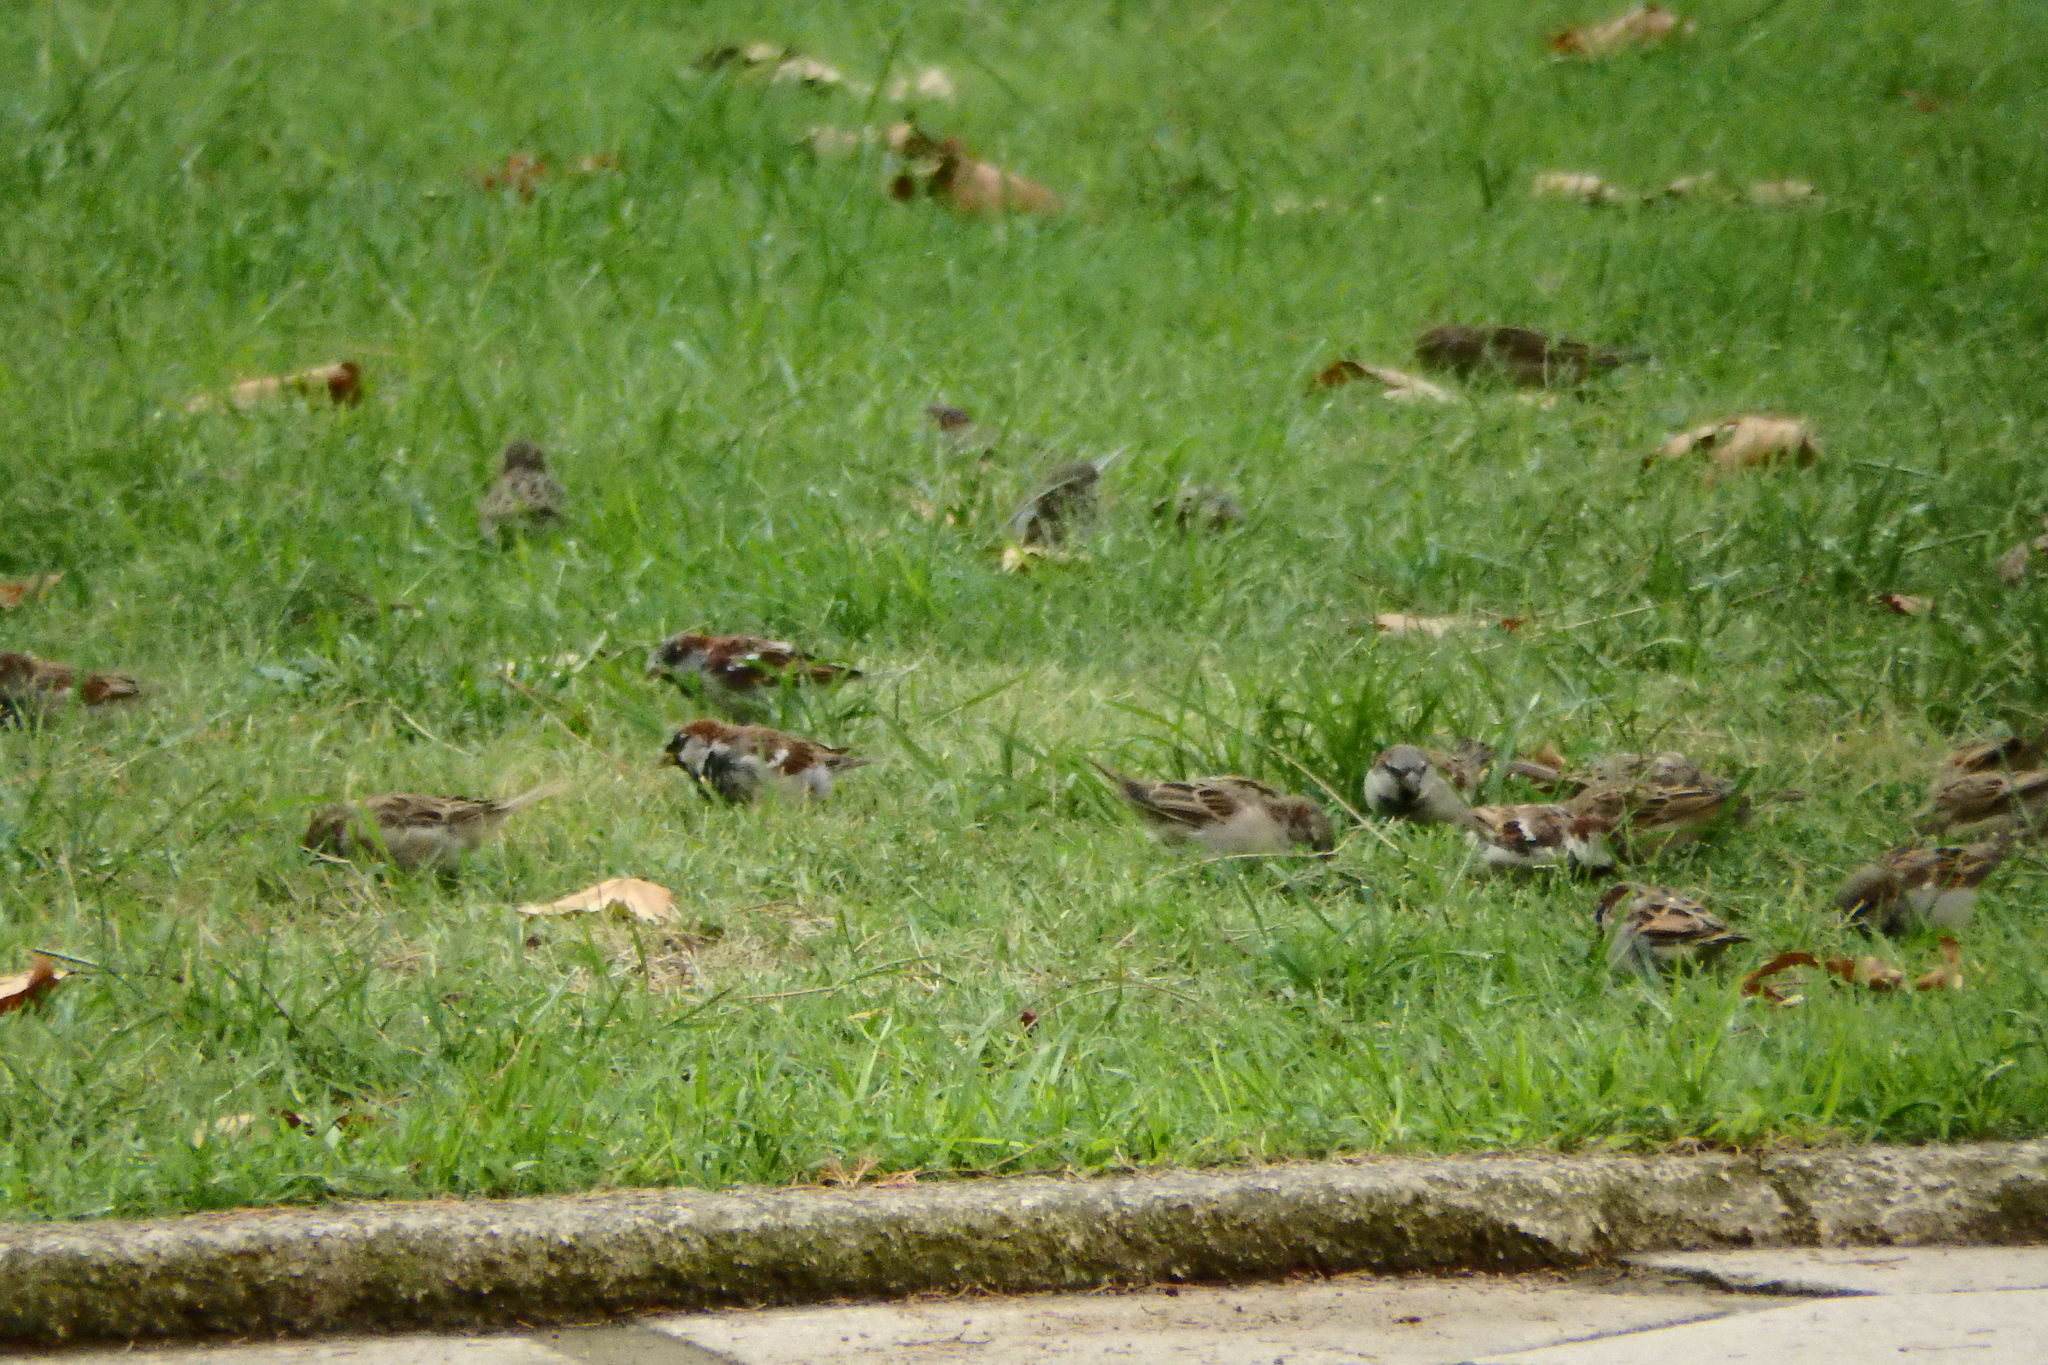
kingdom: Animalia
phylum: Chordata
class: Aves
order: Passeriformes
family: Passeridae
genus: Passer
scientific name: Passer domesticus
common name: House sparrow
